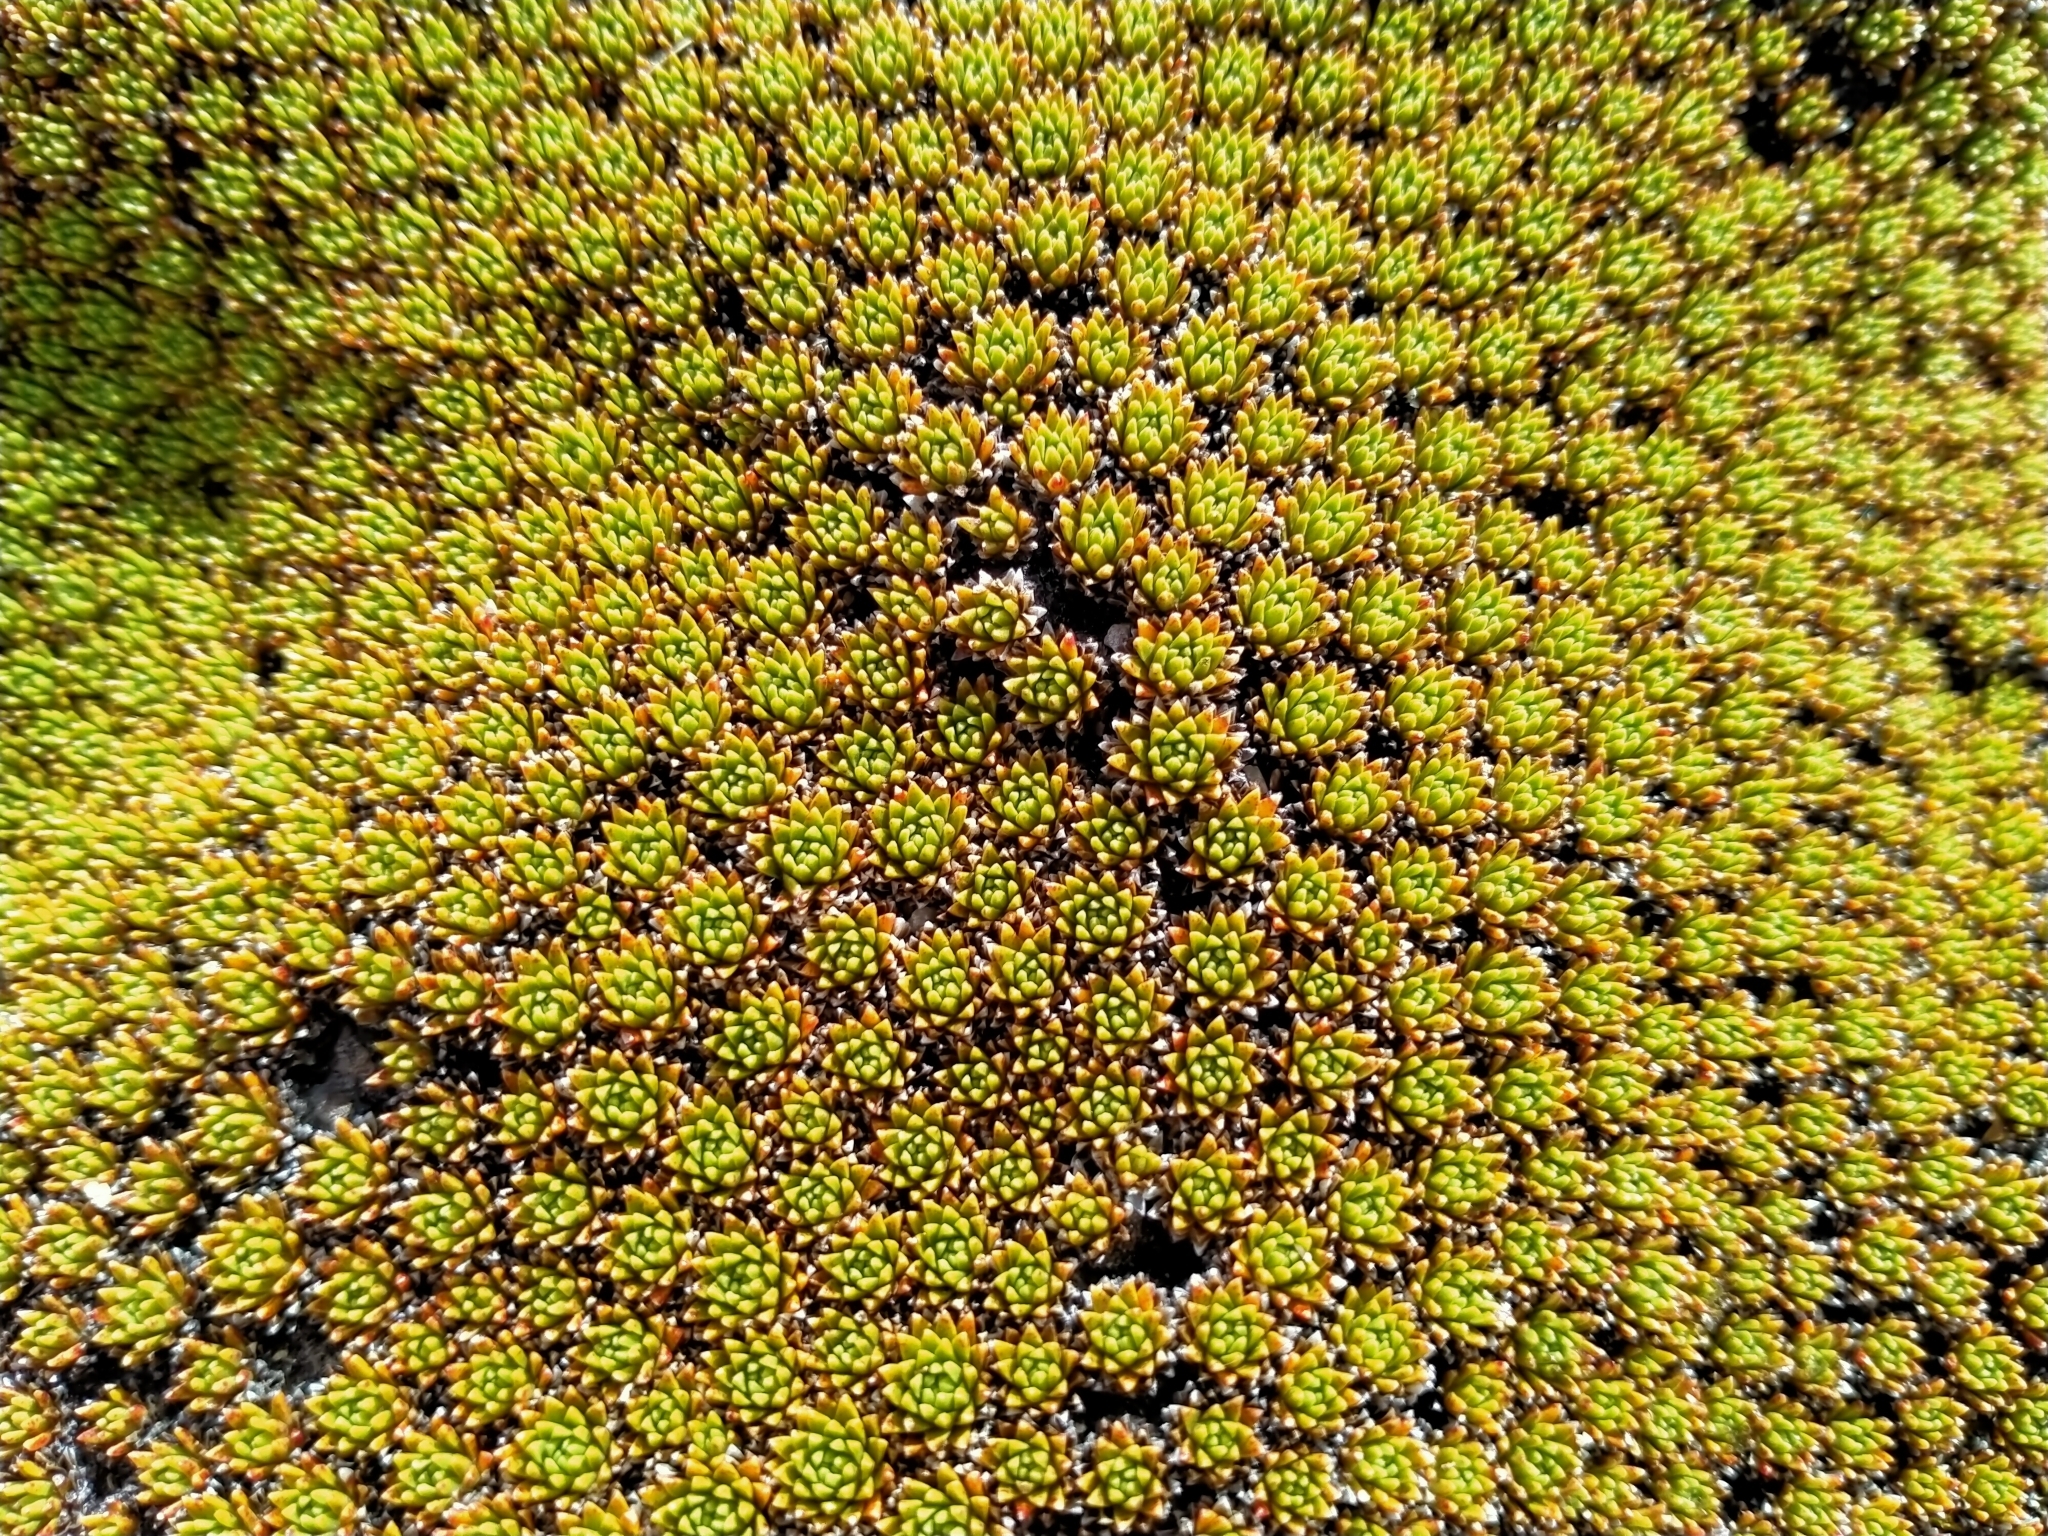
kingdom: Plantae
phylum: Tracheophyta
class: Magnoliopsida
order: Caryophyllales
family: Montiaceae
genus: Hectorella
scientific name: Hectorella caespitosa
